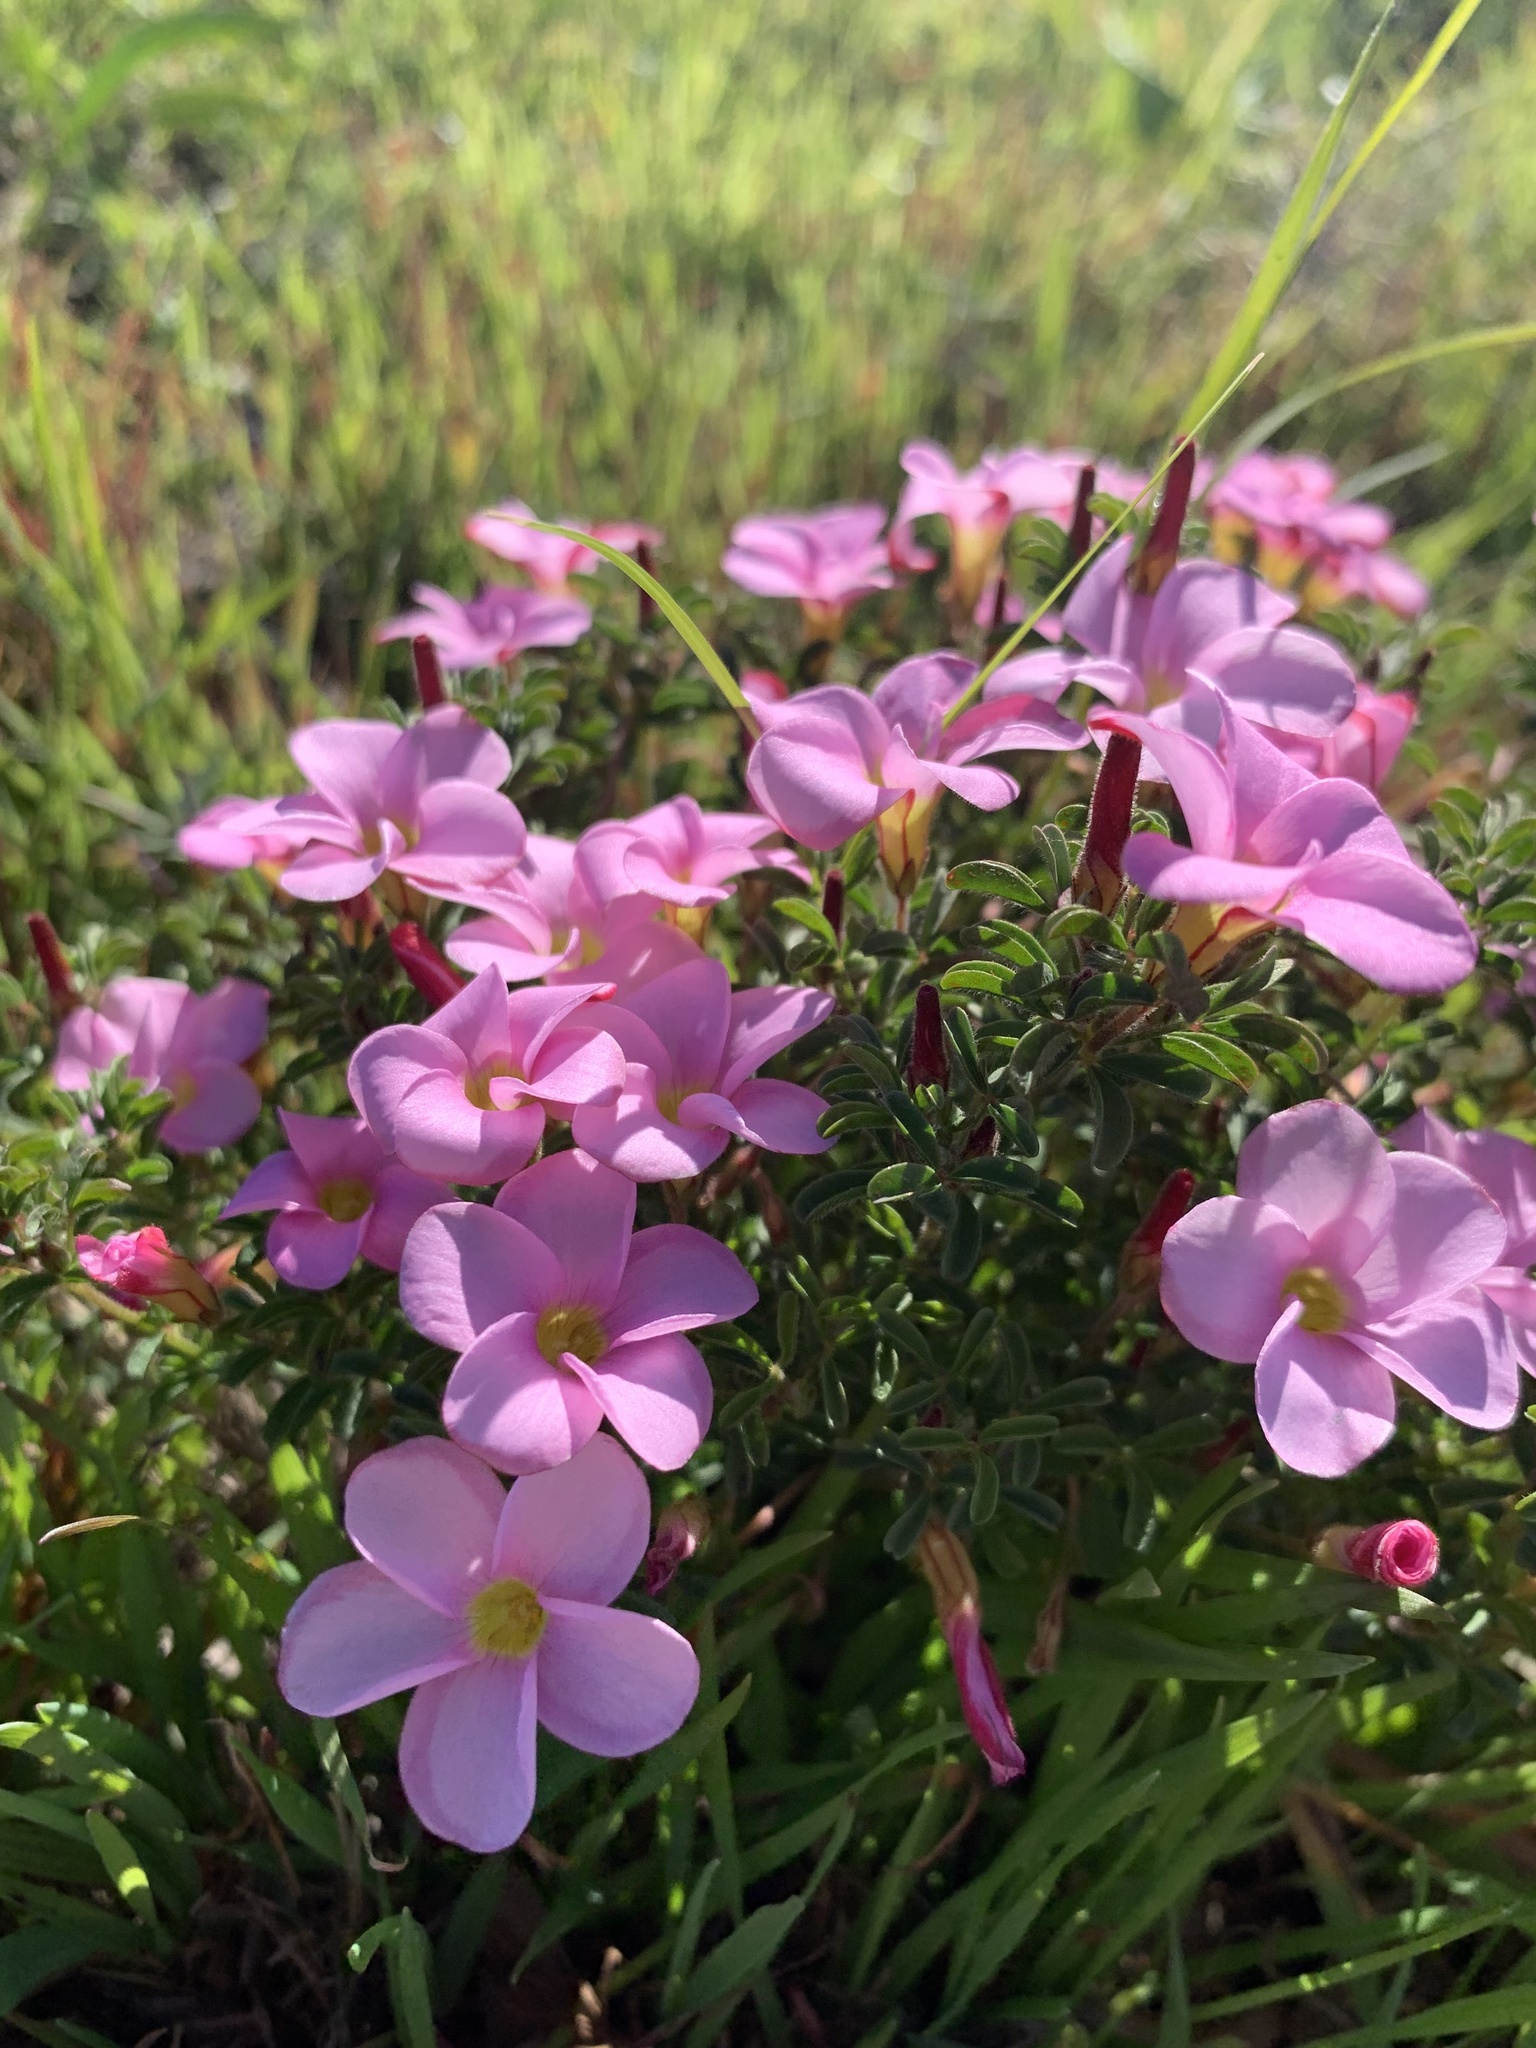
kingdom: Plantae
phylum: Tracheophyta
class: Magnoliopsida
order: Oxalidales
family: Oxalidaceae
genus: Oxalis
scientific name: Oxalis multicaulis
